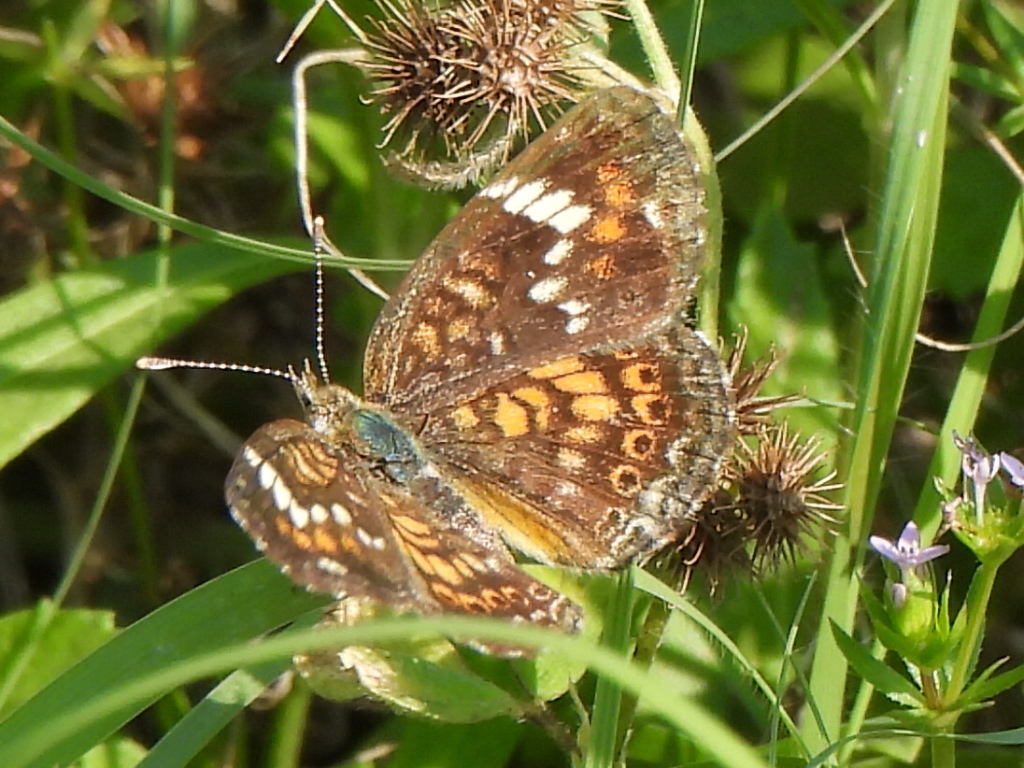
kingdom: Animalia
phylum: Arthropoda
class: Insecta
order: Lepidoptera
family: Nymphalidae
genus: Phyciodes
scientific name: Phyciodes phaon
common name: Phaon crescent
